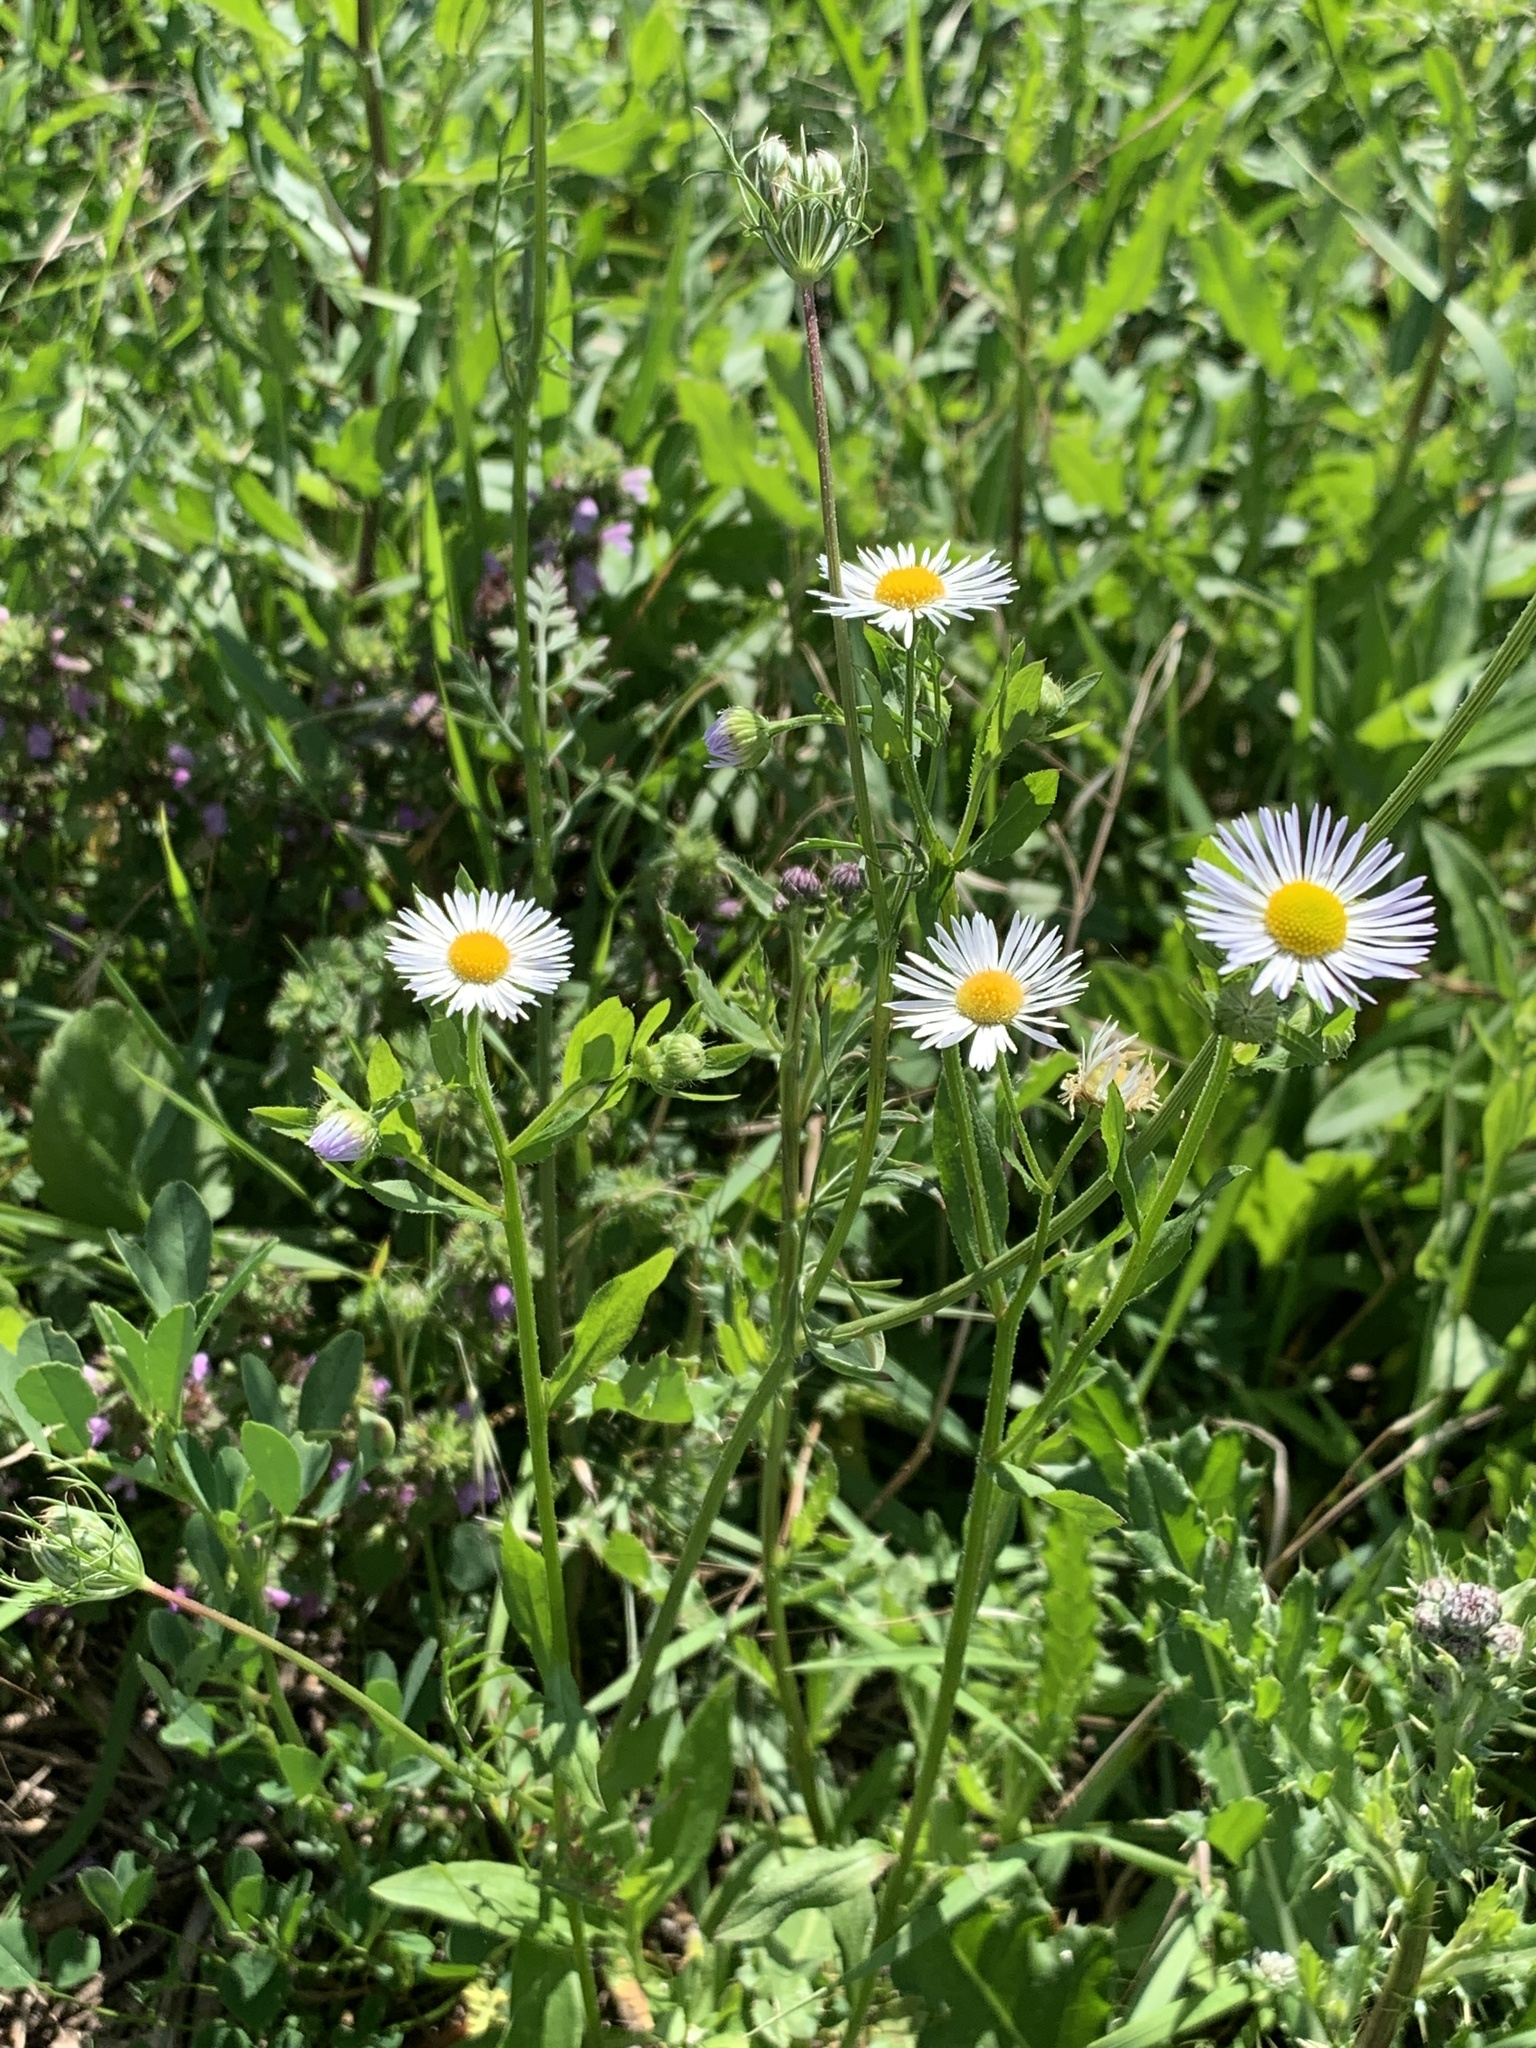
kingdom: Plantae
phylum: Tracheophyta
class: Magnoliopsida
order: Asterales
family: Asteraceae
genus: Erigeron
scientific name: Erigeron annuus
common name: Tall fleabane
